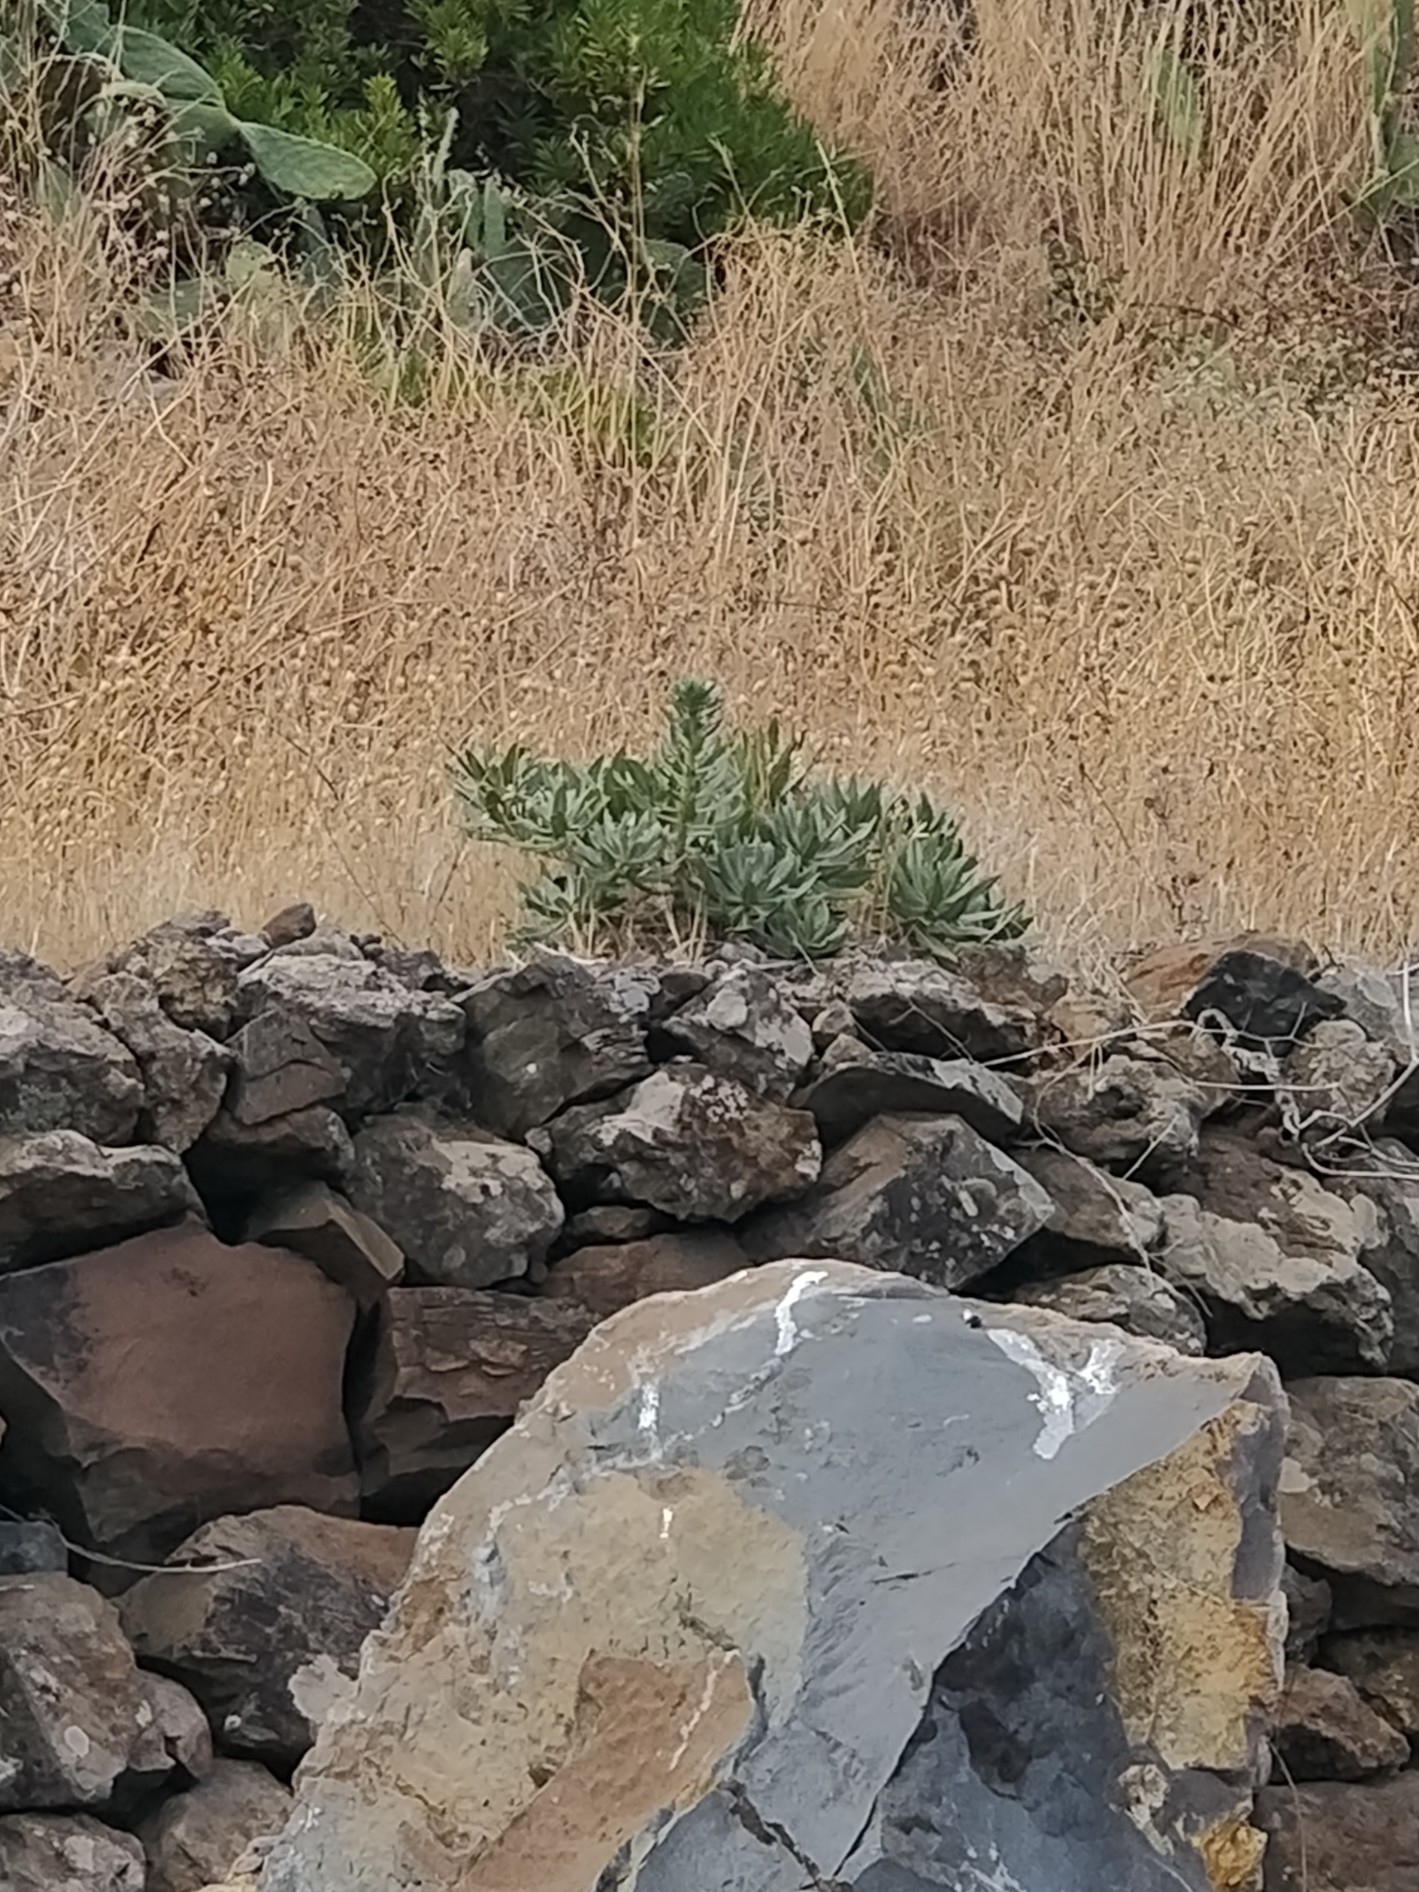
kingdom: Plantae
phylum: Tracheophyta
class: Magnoliopsida
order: Boraginales
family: Boraginaceae
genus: Echium
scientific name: Echium nervosum
